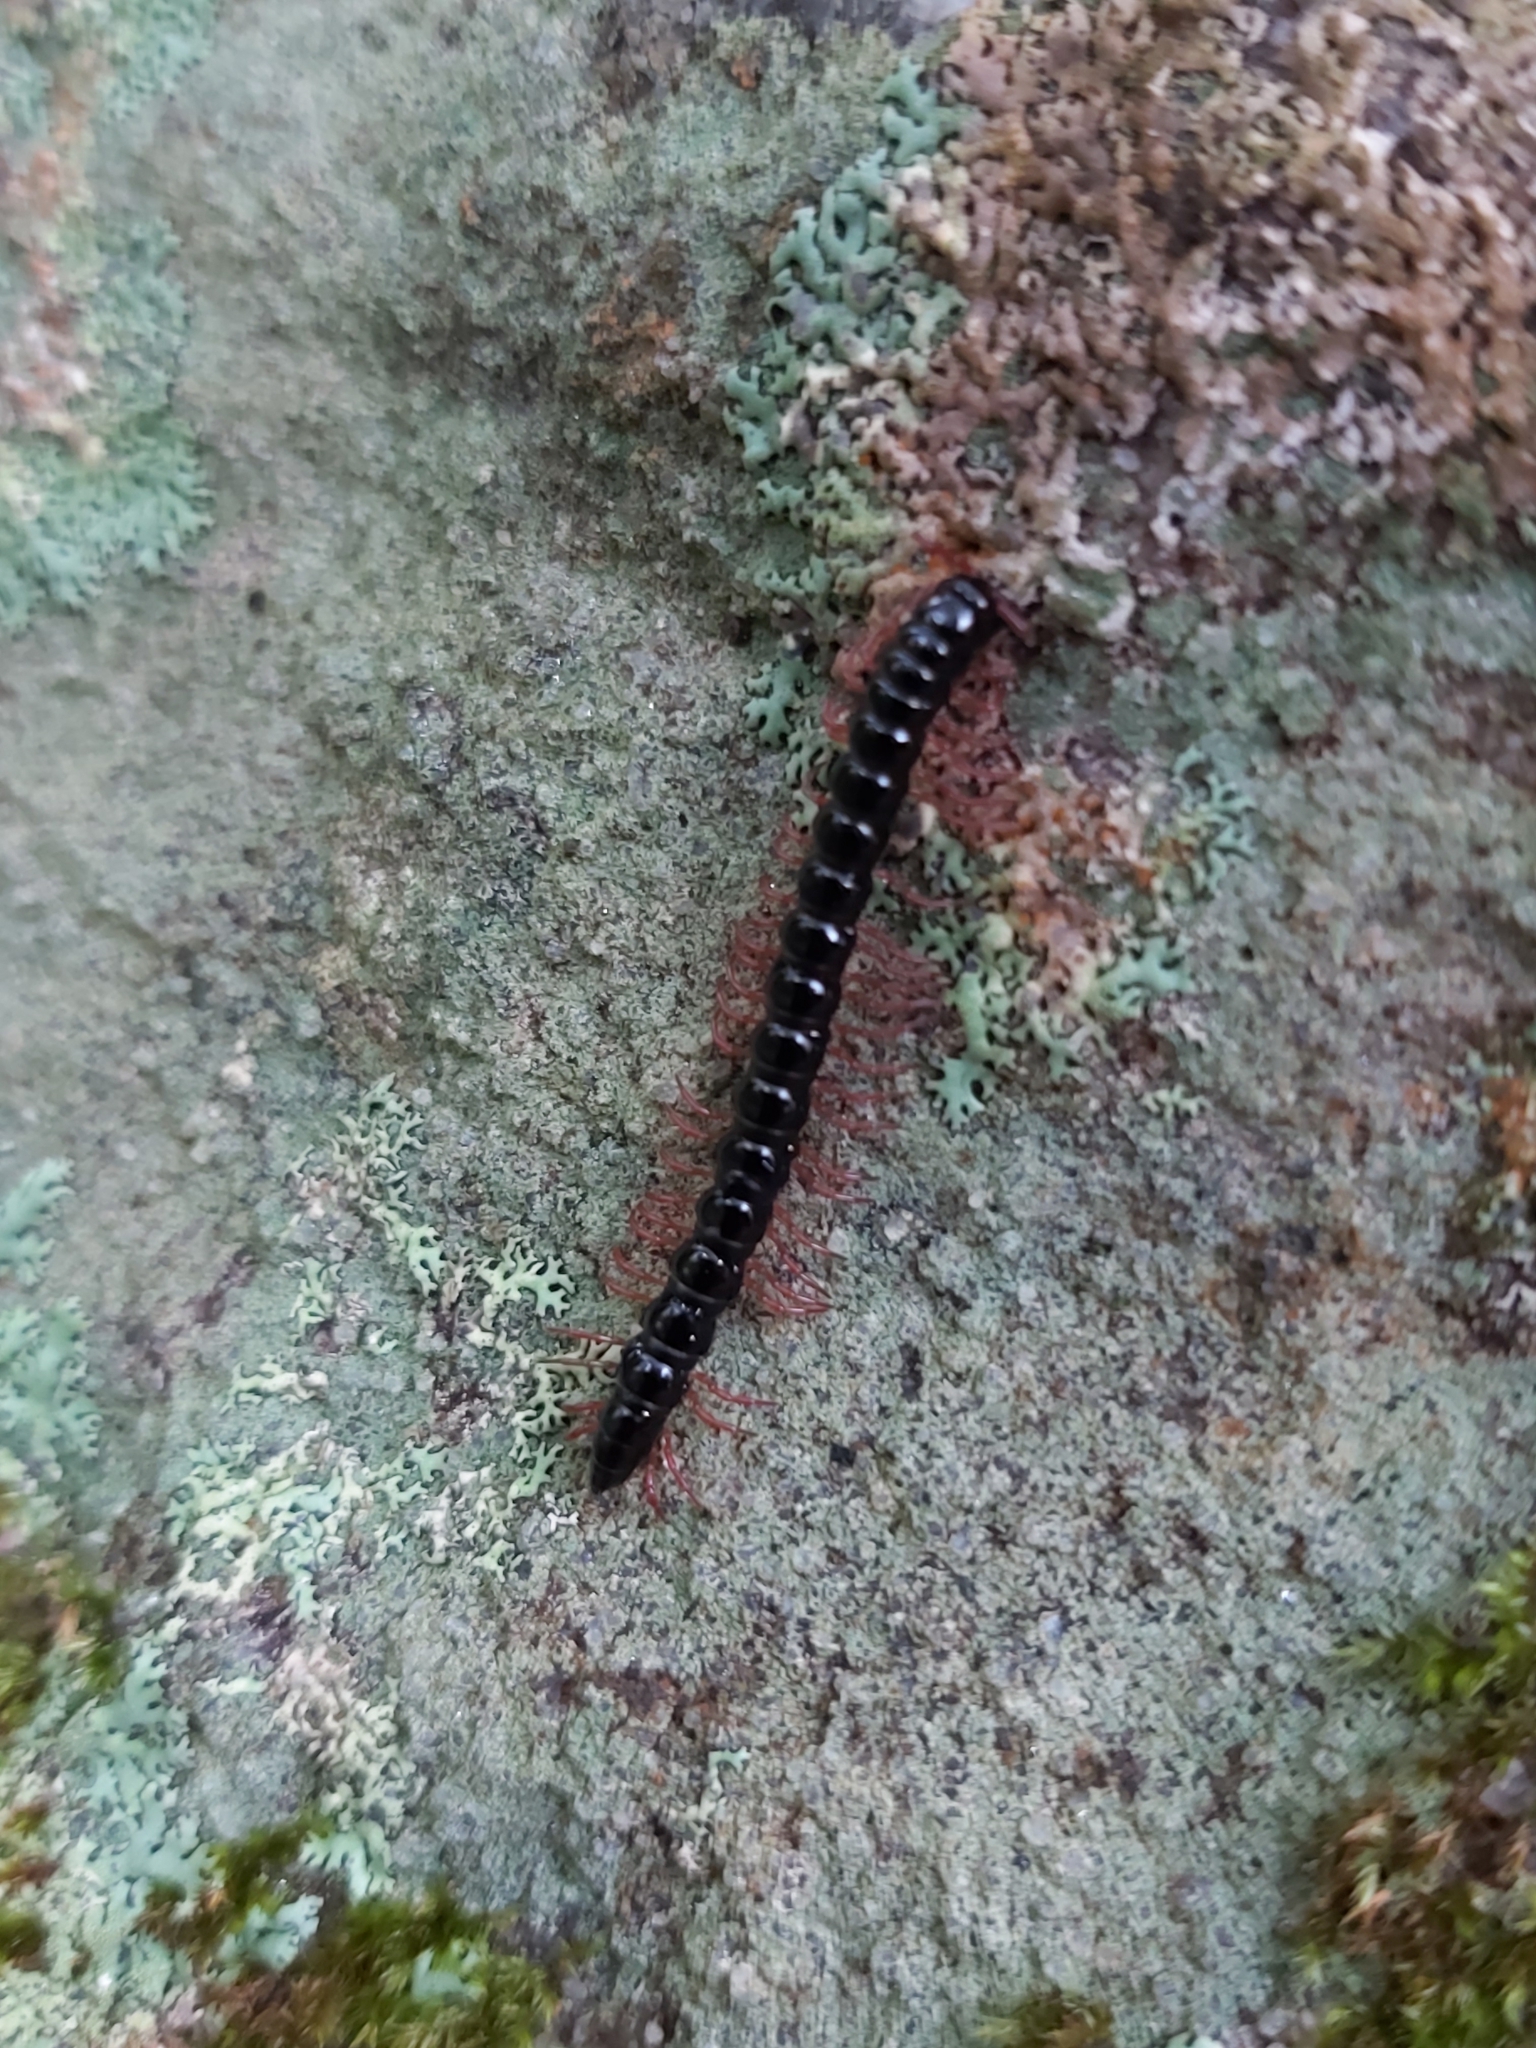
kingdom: Animalia
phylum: Arthropoda
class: Diplopoda
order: Polydesmida
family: Paradoxosomatidae
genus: Heterocladosoma
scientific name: Heterocladosoma
